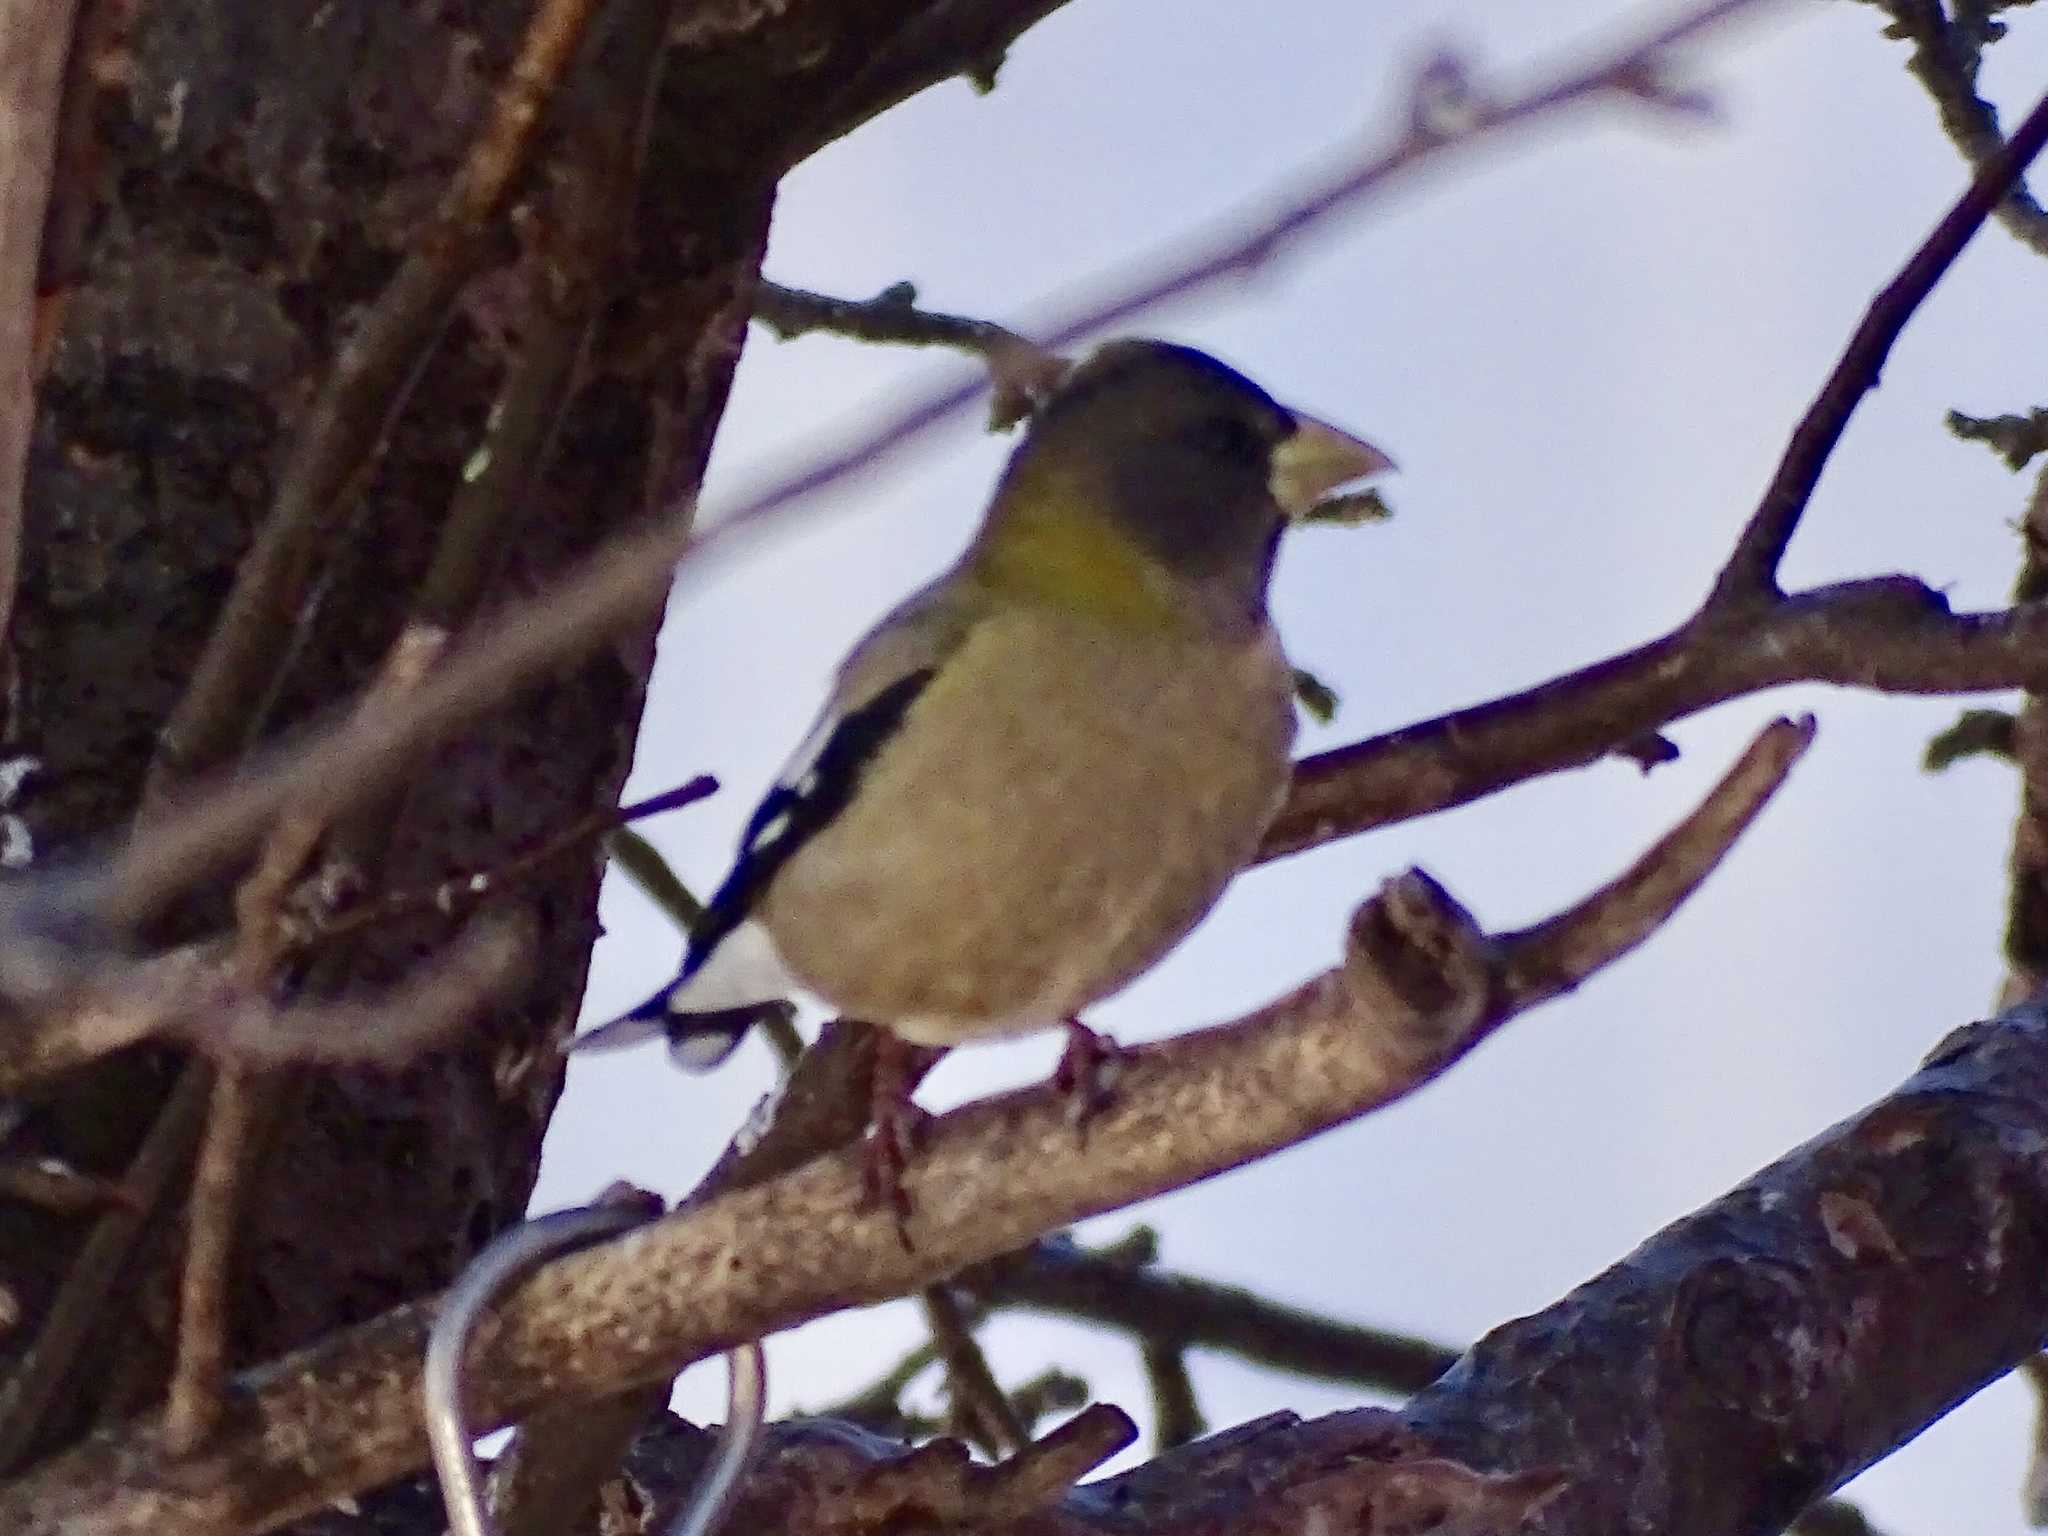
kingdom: Animalia
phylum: Chordata
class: Aves
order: Passeriformes
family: Fringillidae
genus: Hesperiphona
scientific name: Hesperiphona vespertina
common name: Evening grosbeak
